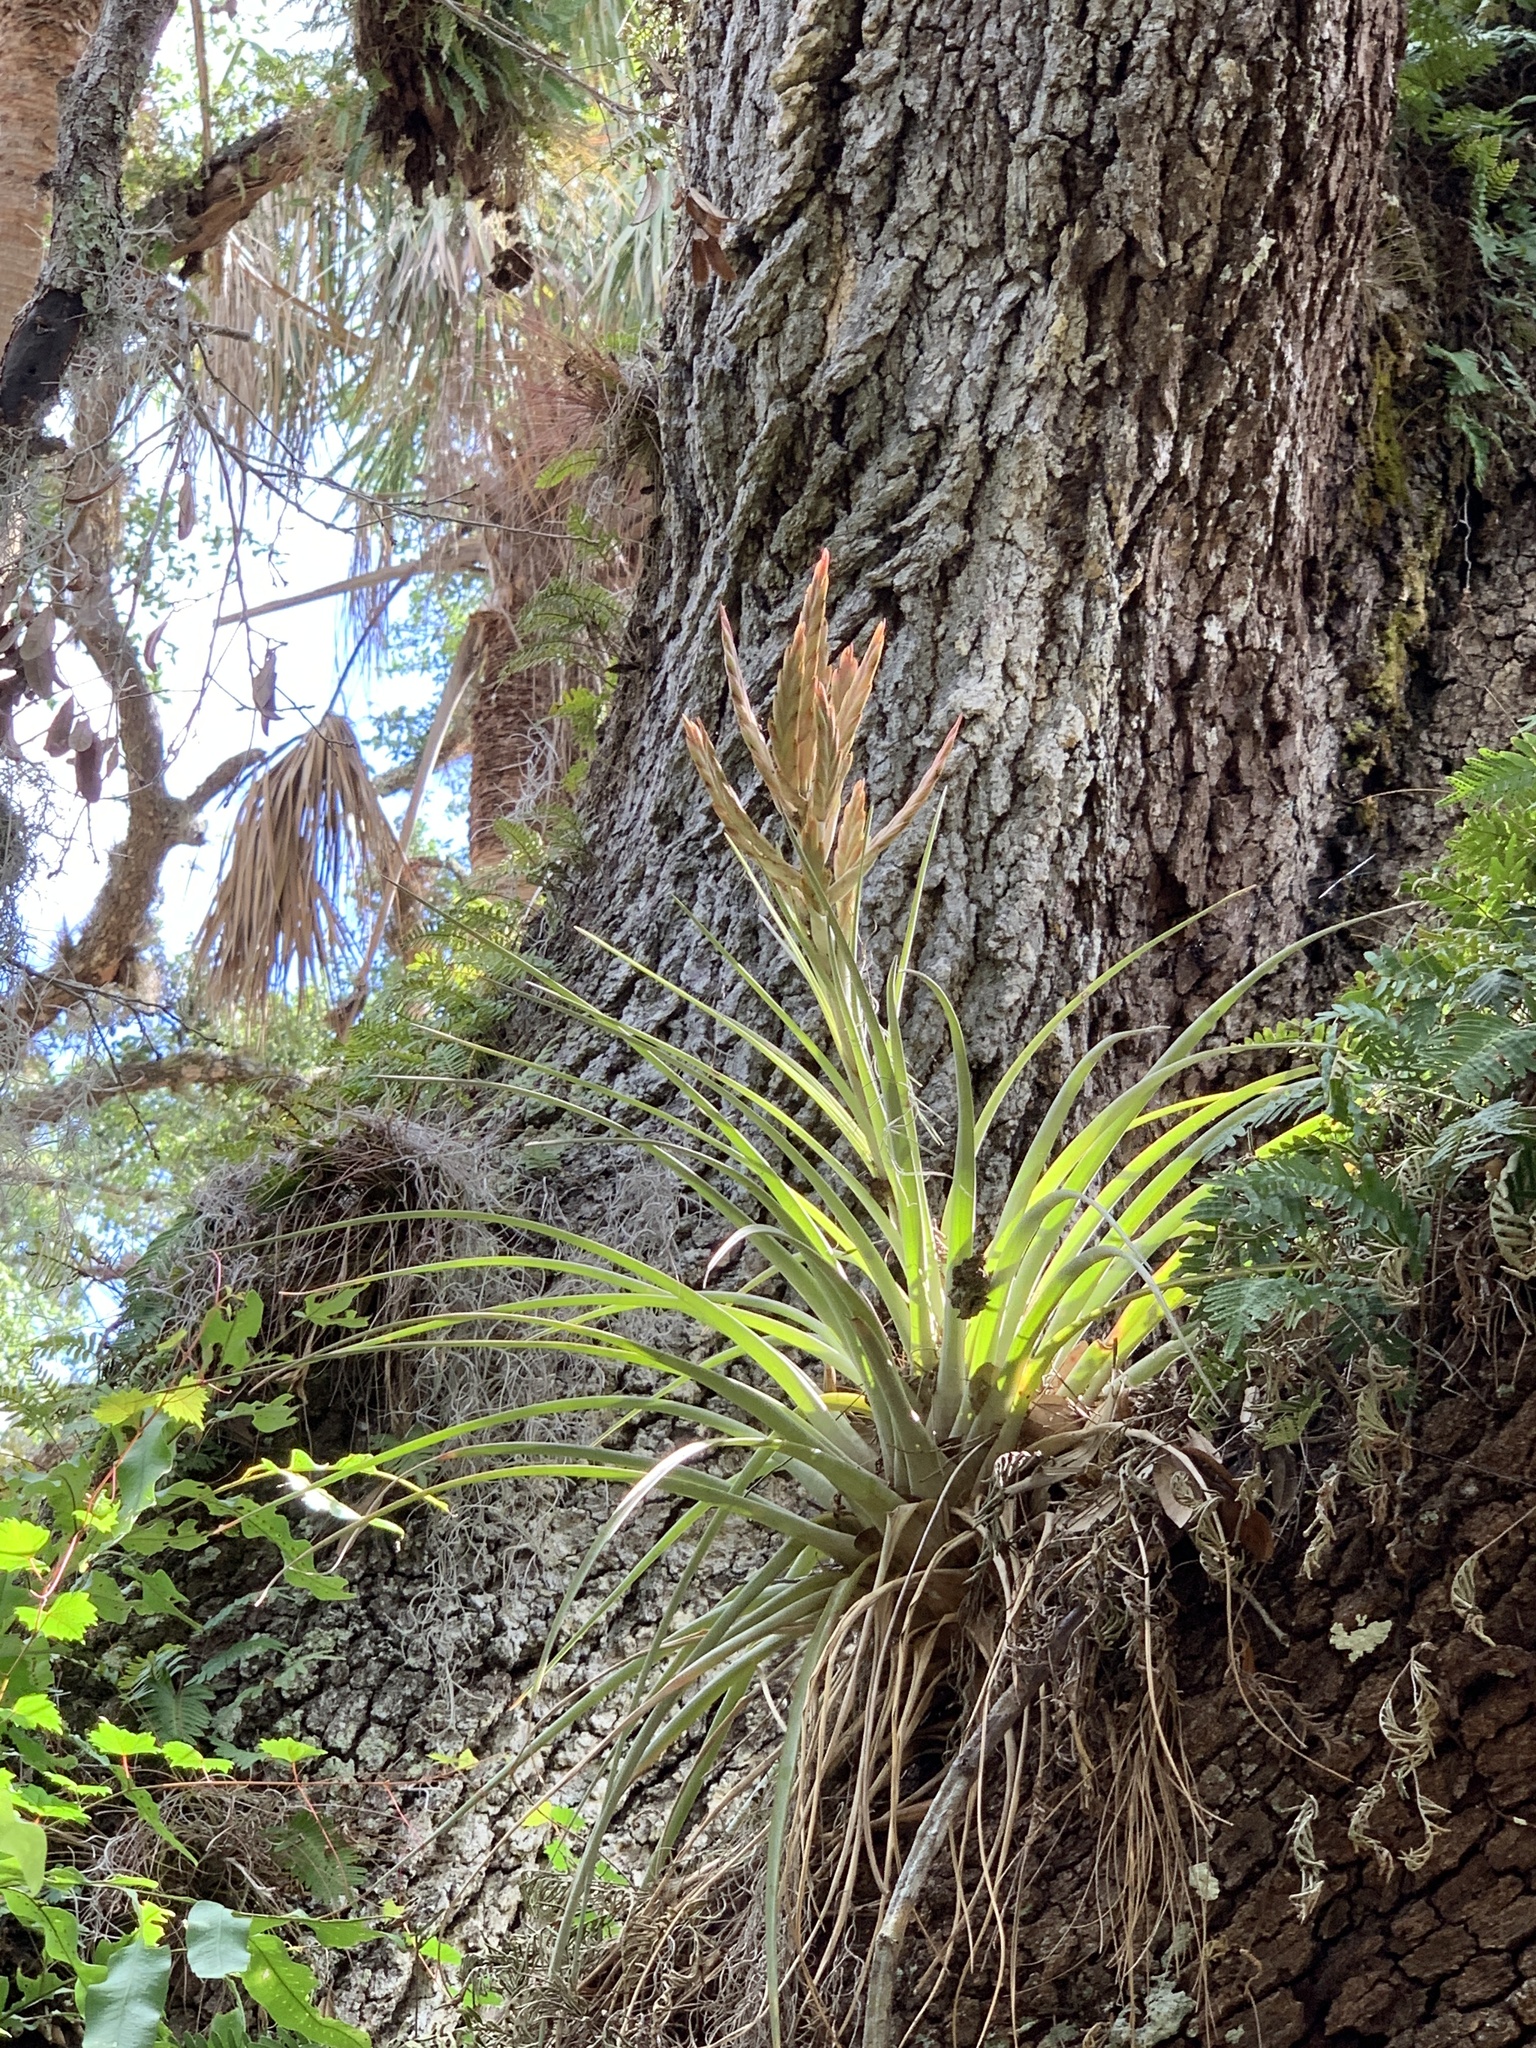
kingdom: Plantae
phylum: Tracheophyta
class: Liliopsida
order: Poales
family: Bromeliaceae
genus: Tillandsia
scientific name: Tillandsia fasciculata
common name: Giant airplant
